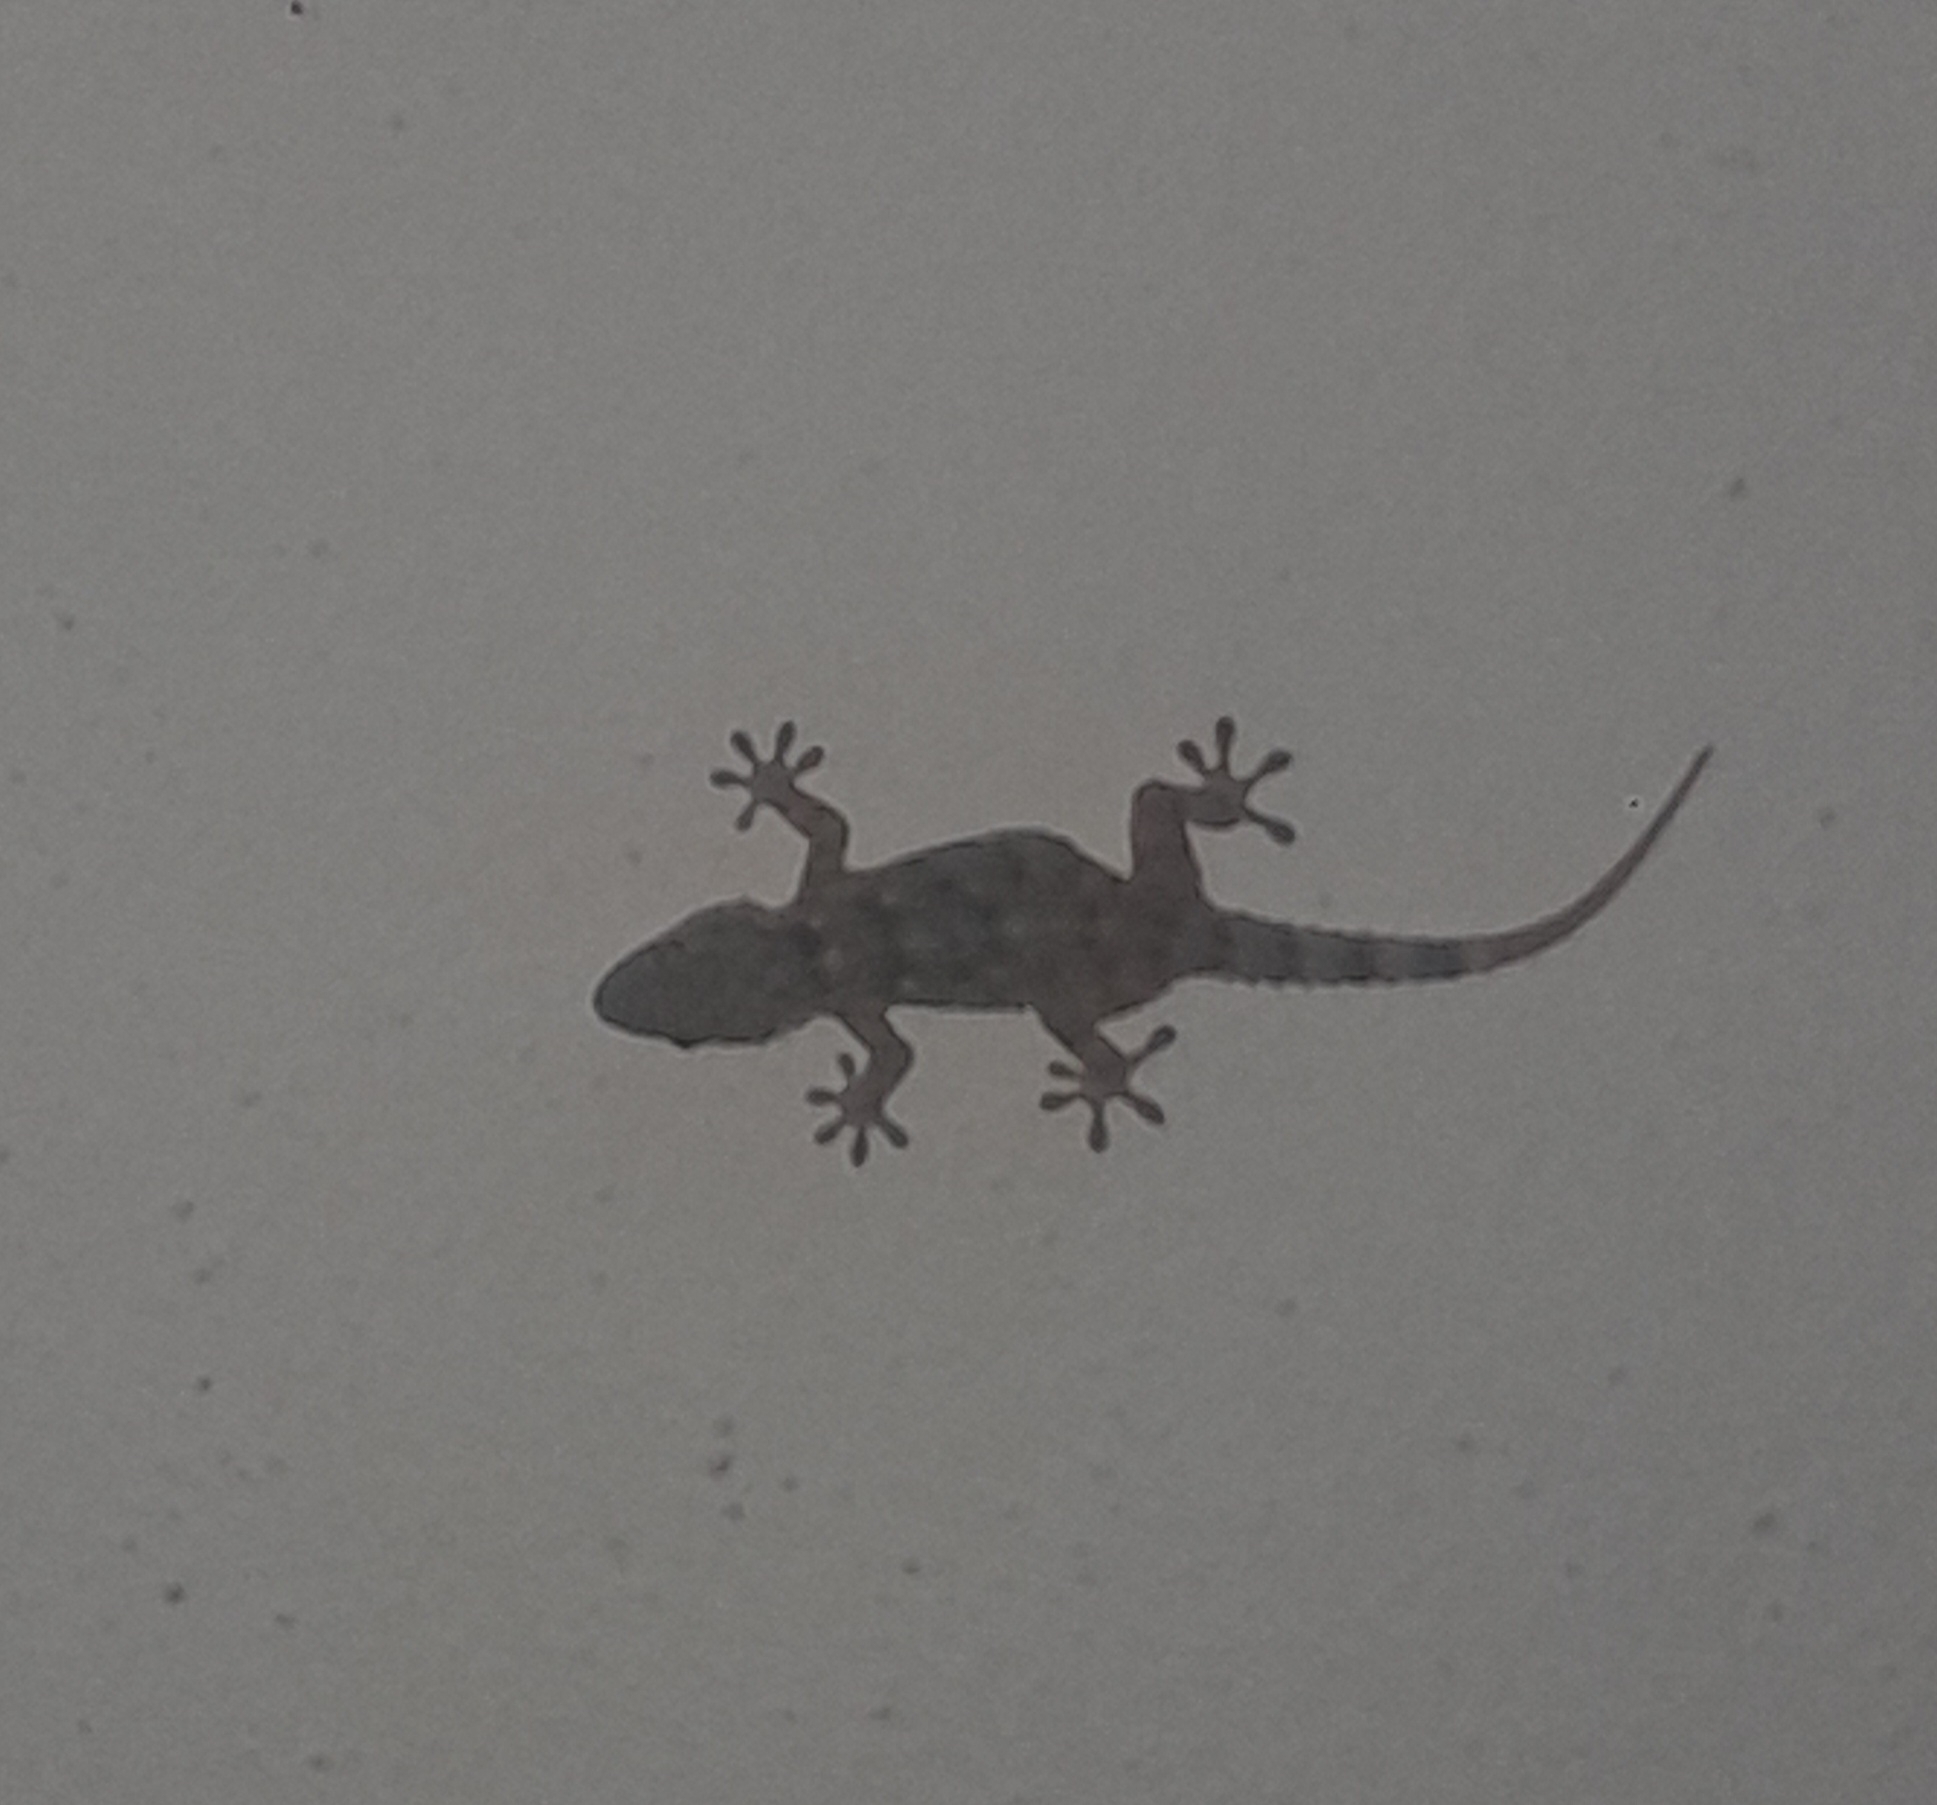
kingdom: Animalia
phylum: Chordata
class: Squamata
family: Phyllodactylidae
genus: Tarentola
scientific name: Tarentola mauritanica
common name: Moorish gecko
